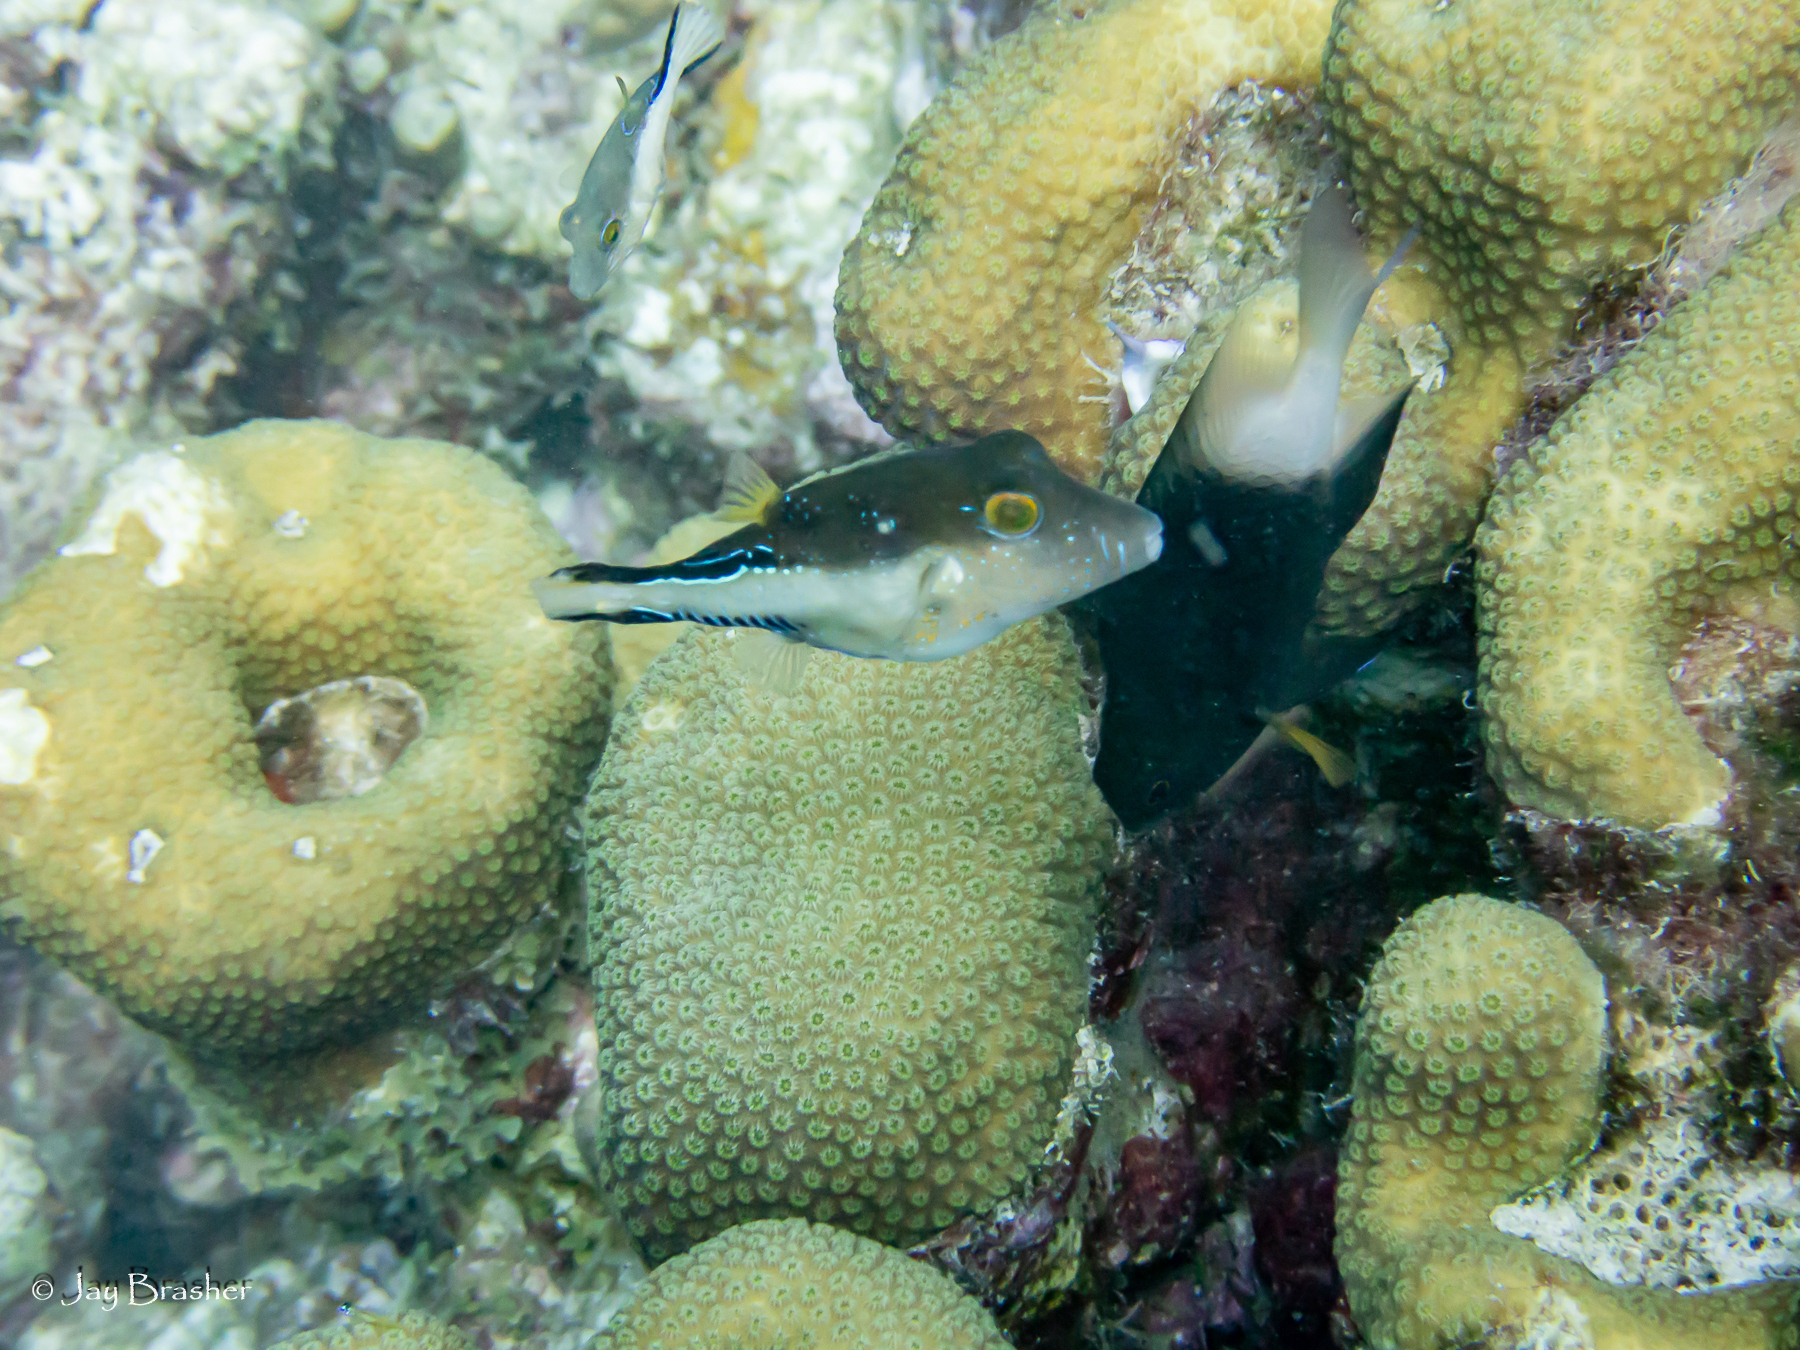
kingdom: Animalia
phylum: Chordata
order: Perciformes
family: Pomacentridae
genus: Stegastes
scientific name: Stegastes partitus
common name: Bicolor damselfish
